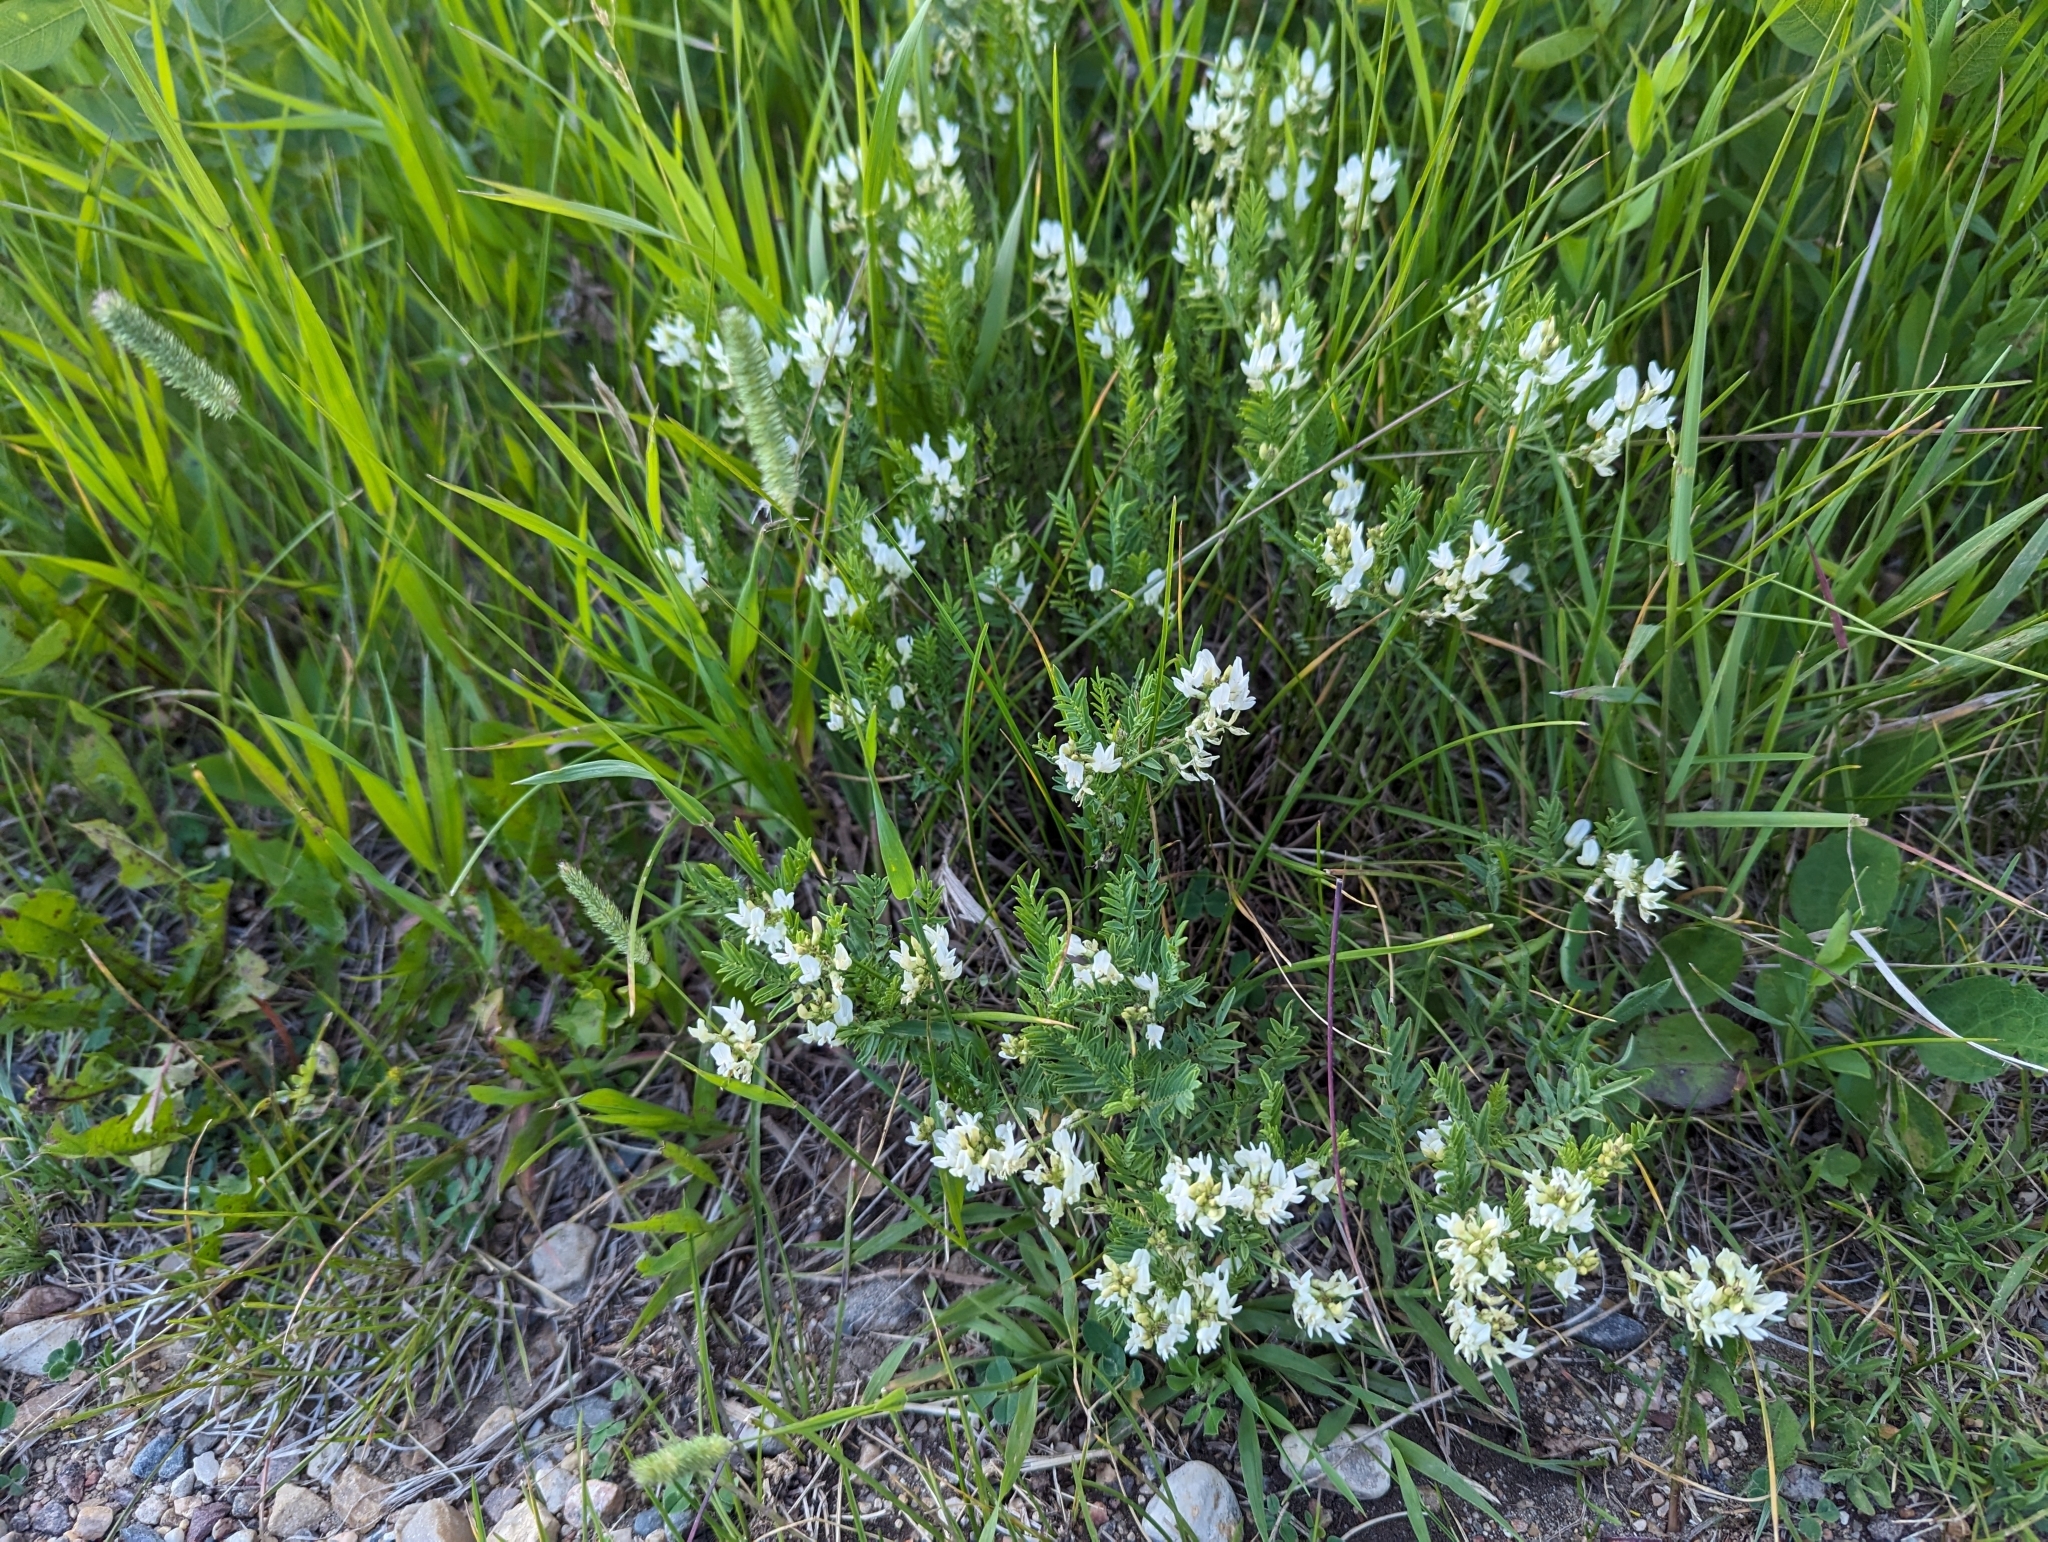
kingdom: Plantae
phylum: Tracheophyta
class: Magnoliopsida
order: Fabales
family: Fabaceae
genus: Astragalus
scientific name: Astragalus tenellus
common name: Pulse milk-vetch
